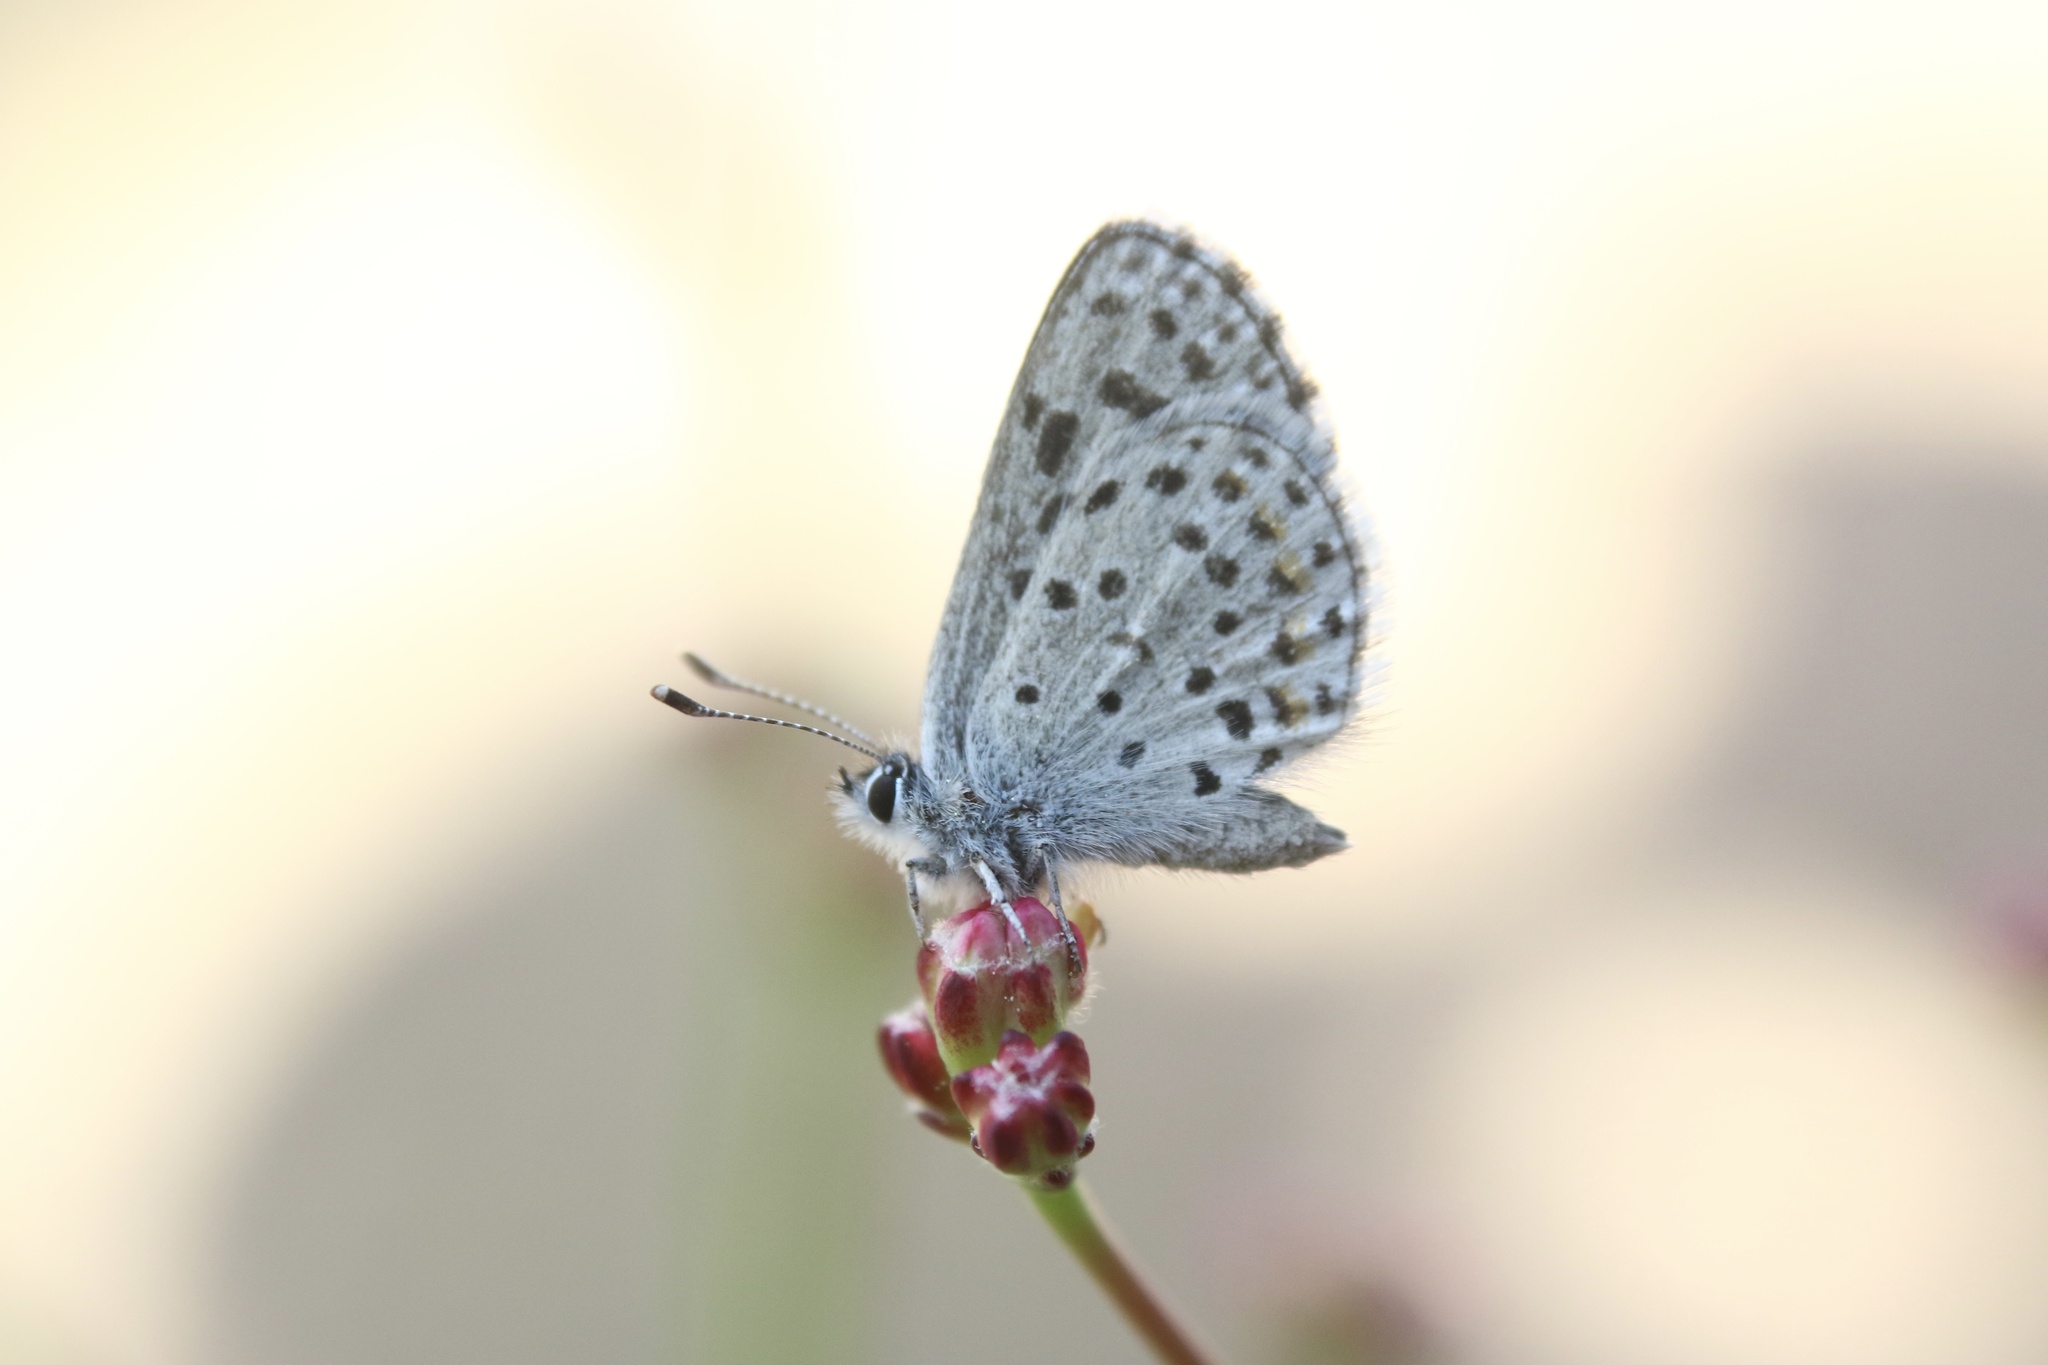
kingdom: Animalia
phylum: Arthropoda
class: Insecta
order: Lepidoptera
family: Lycaenidae
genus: Euphilotes
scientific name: Euphilotes battoides
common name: Square-spotted blue
